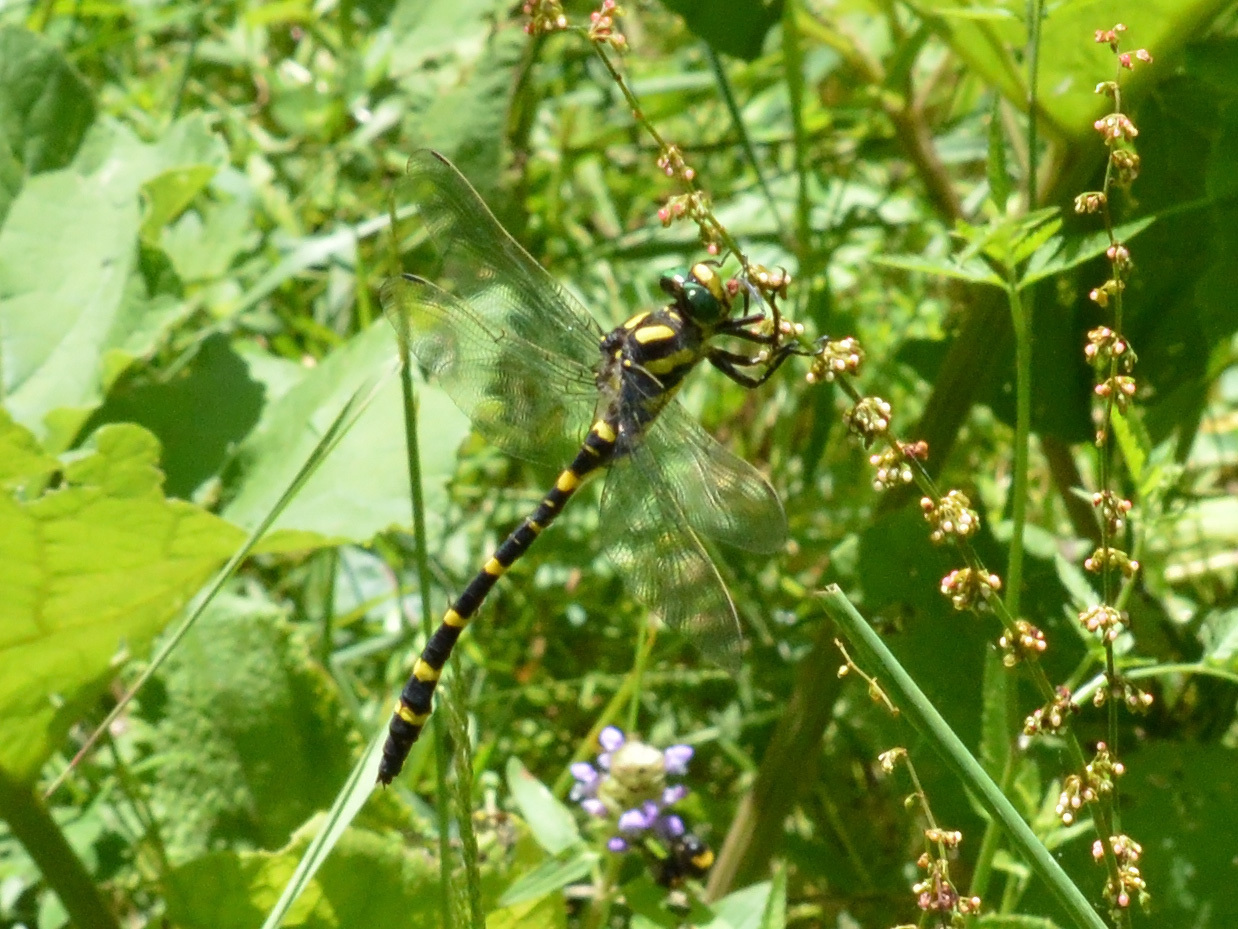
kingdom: Animalia
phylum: Arthropoda
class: Insecta
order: Odonata
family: Cordulegastridae
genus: Cordulegaster
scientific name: Cordulegaster heros
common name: Balkan goldenring
